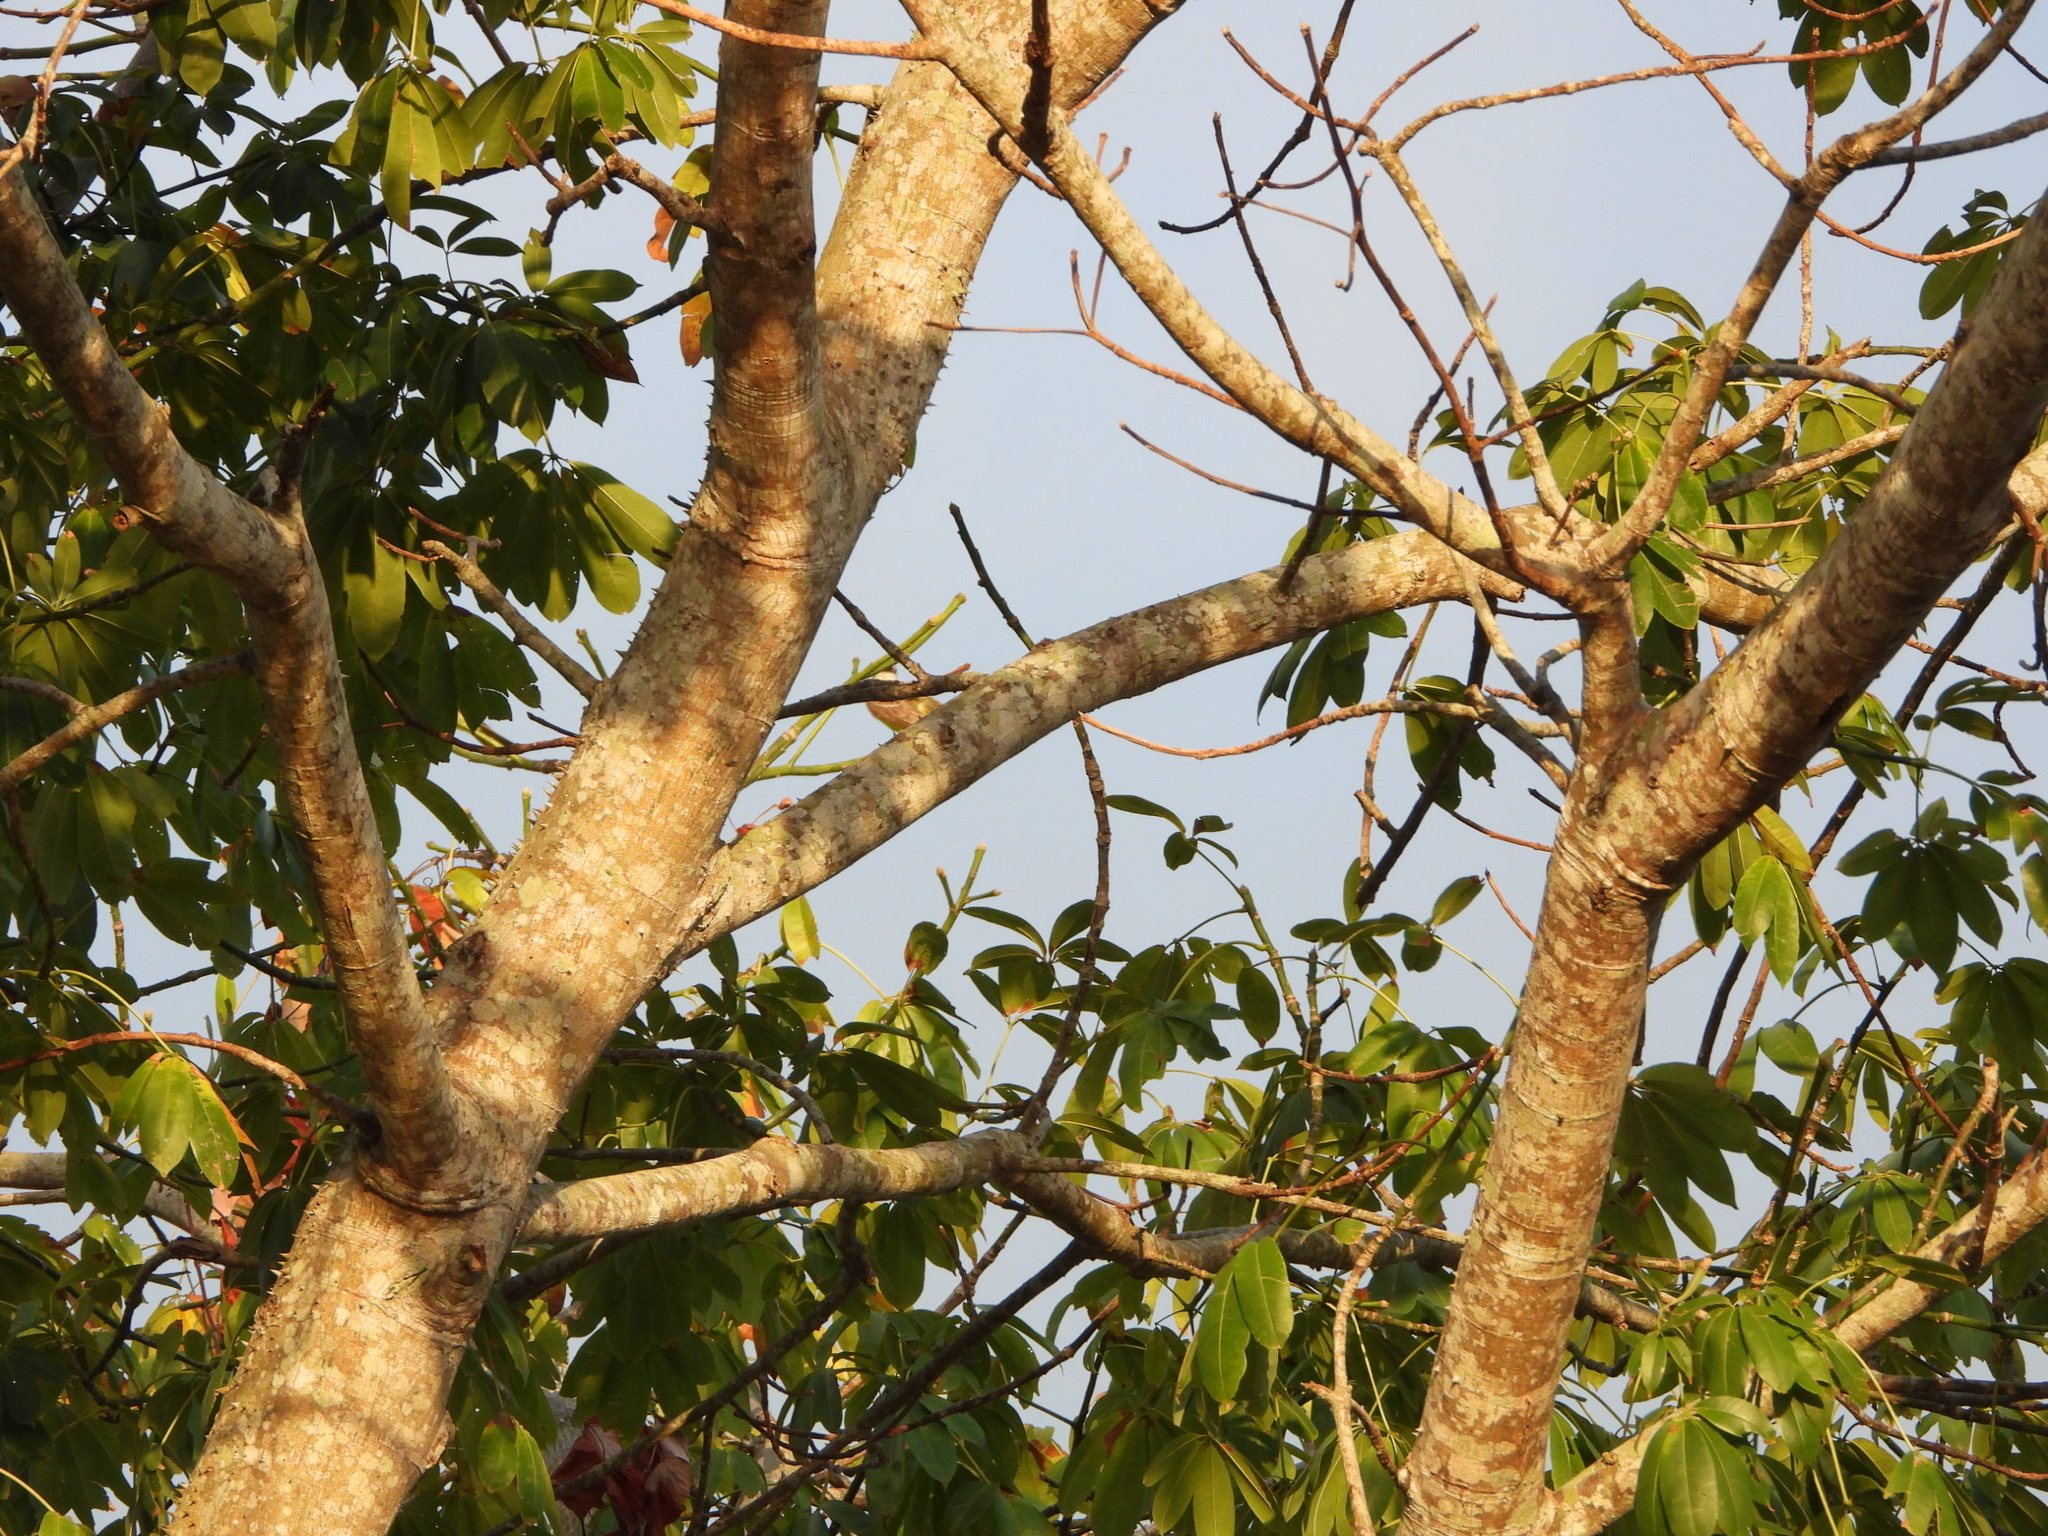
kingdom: Plantae
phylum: Tracheophyta
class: Magnoliopsida
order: Malvales
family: Malvaceae
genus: Ceiba
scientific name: Ceiba pentandra
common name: Kapok
